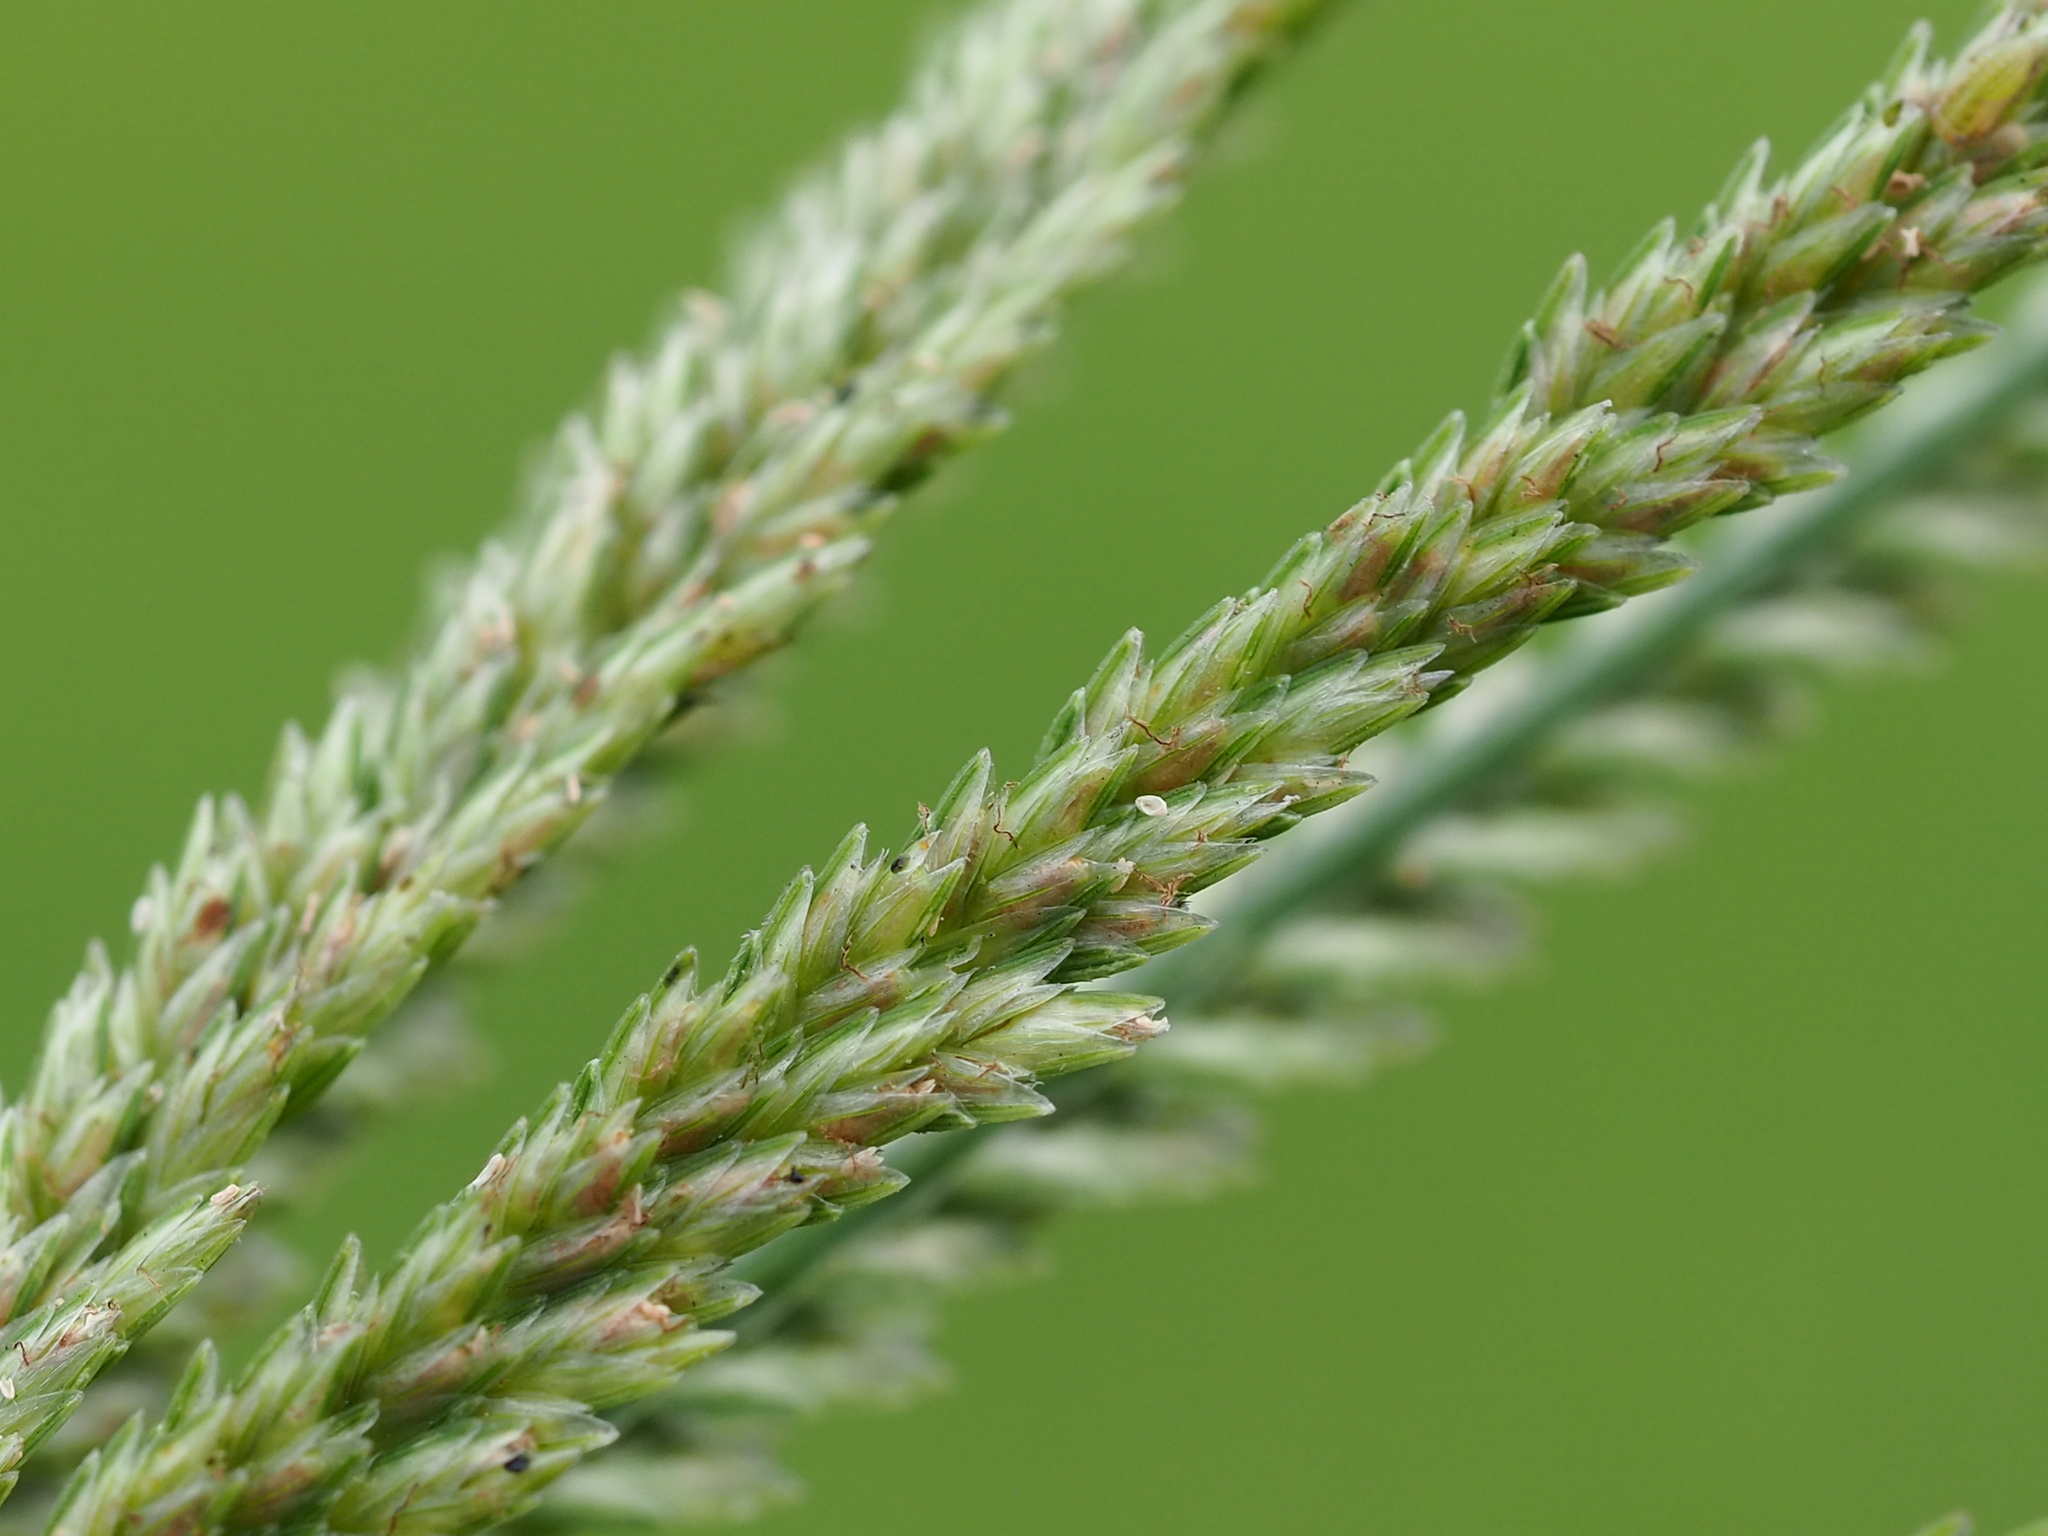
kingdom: Plantae
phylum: Tracheophyta
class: Liliopsida
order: Poales
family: Poaceae
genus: Eleusine
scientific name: Eleusine indica
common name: Yard-grass
